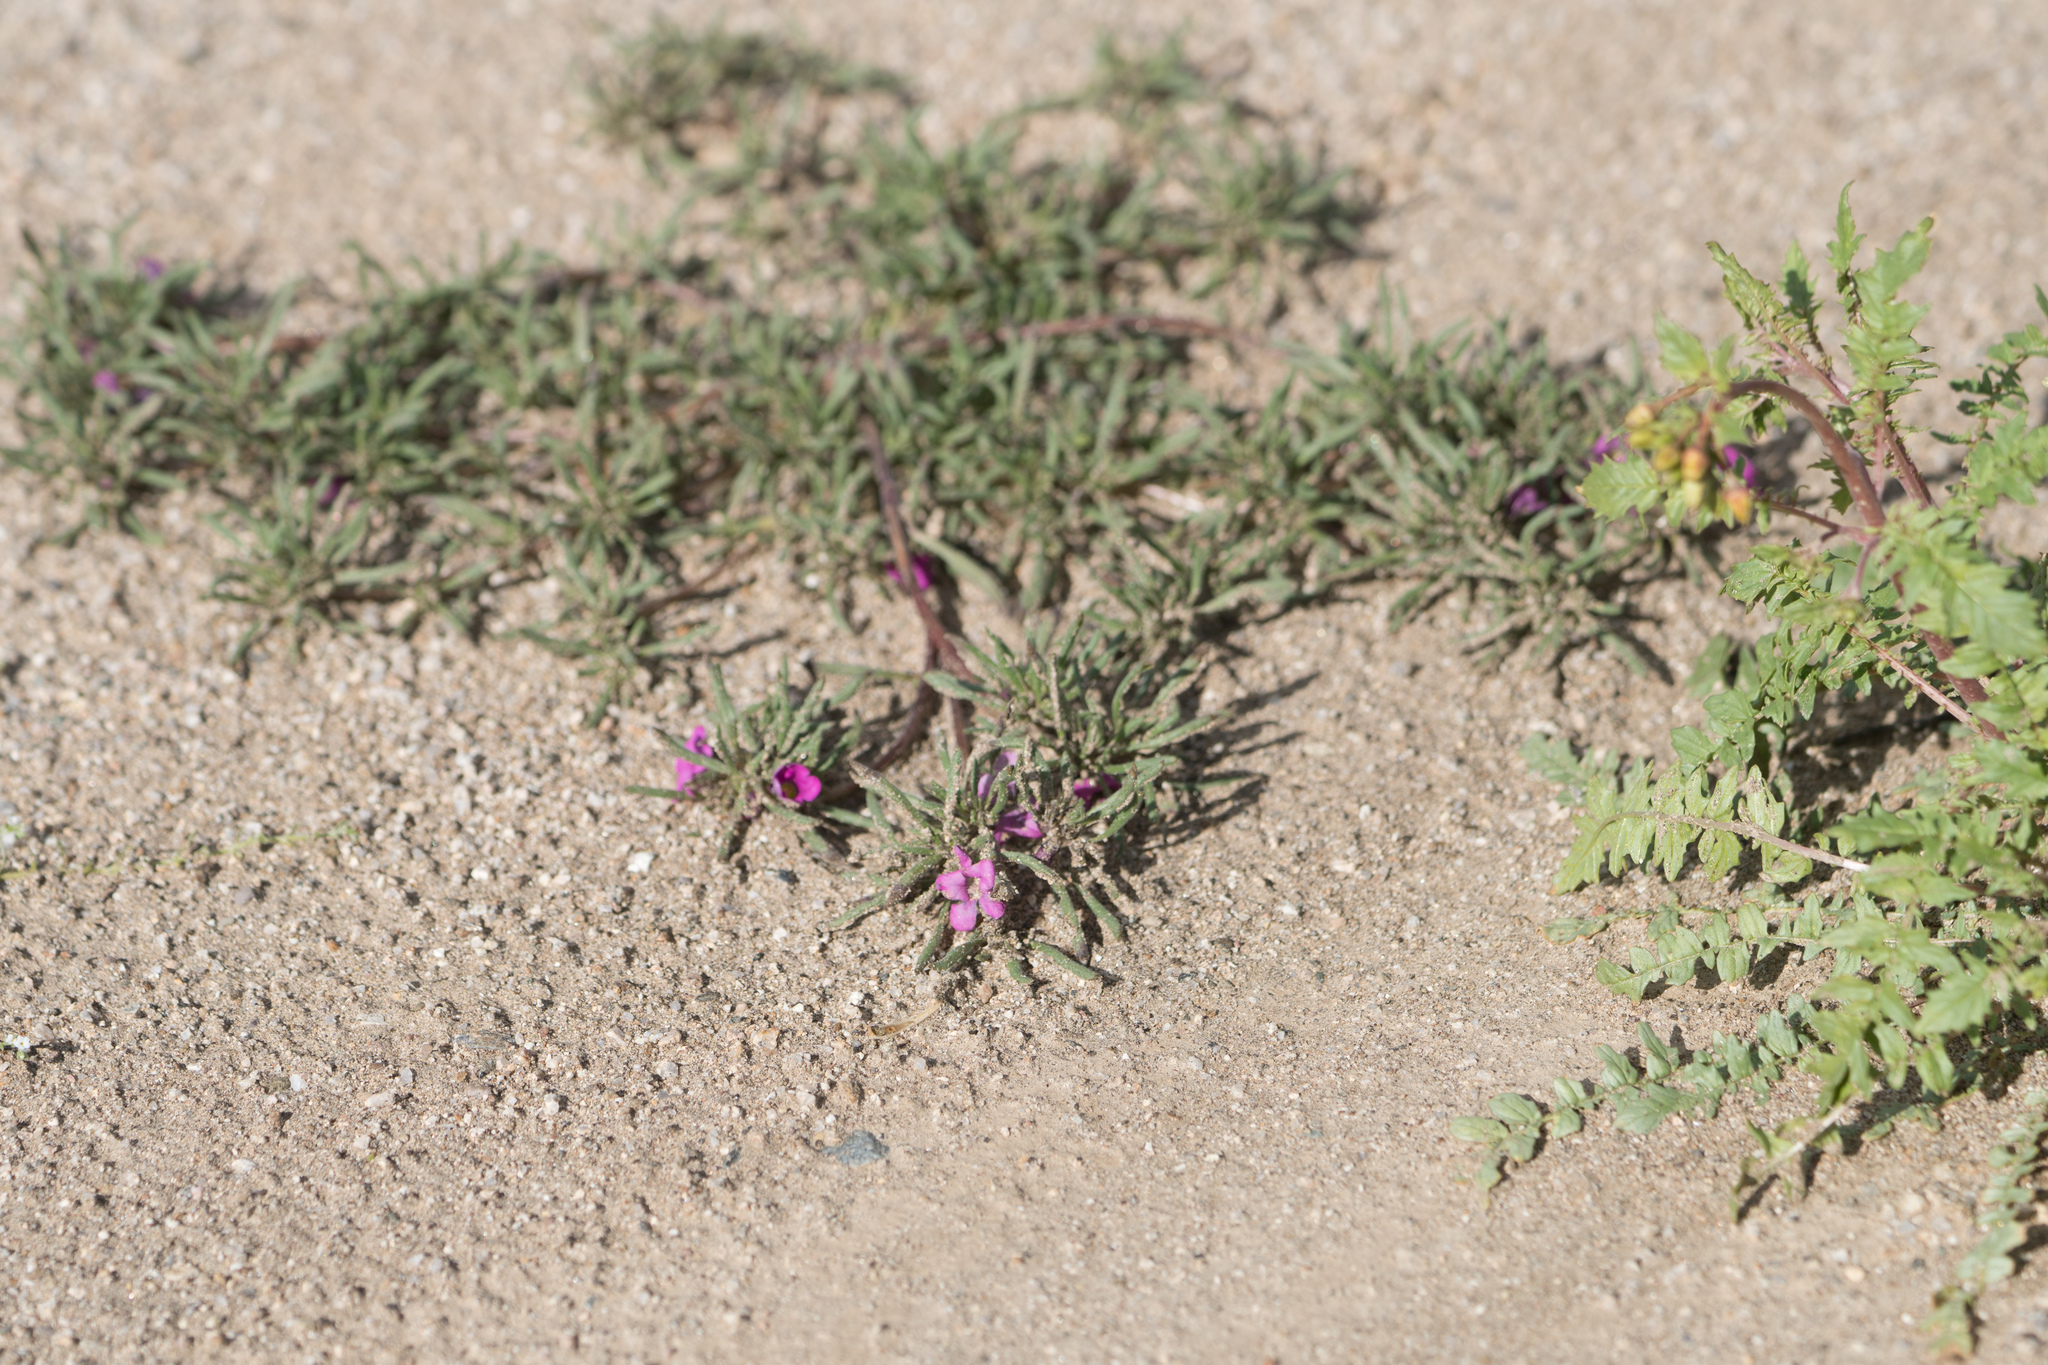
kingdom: Plantae
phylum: Tracheophyta
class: Magnoliopsida
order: Boraginales
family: Namaceae
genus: Nama
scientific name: Nama demissa
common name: Leafy nama
